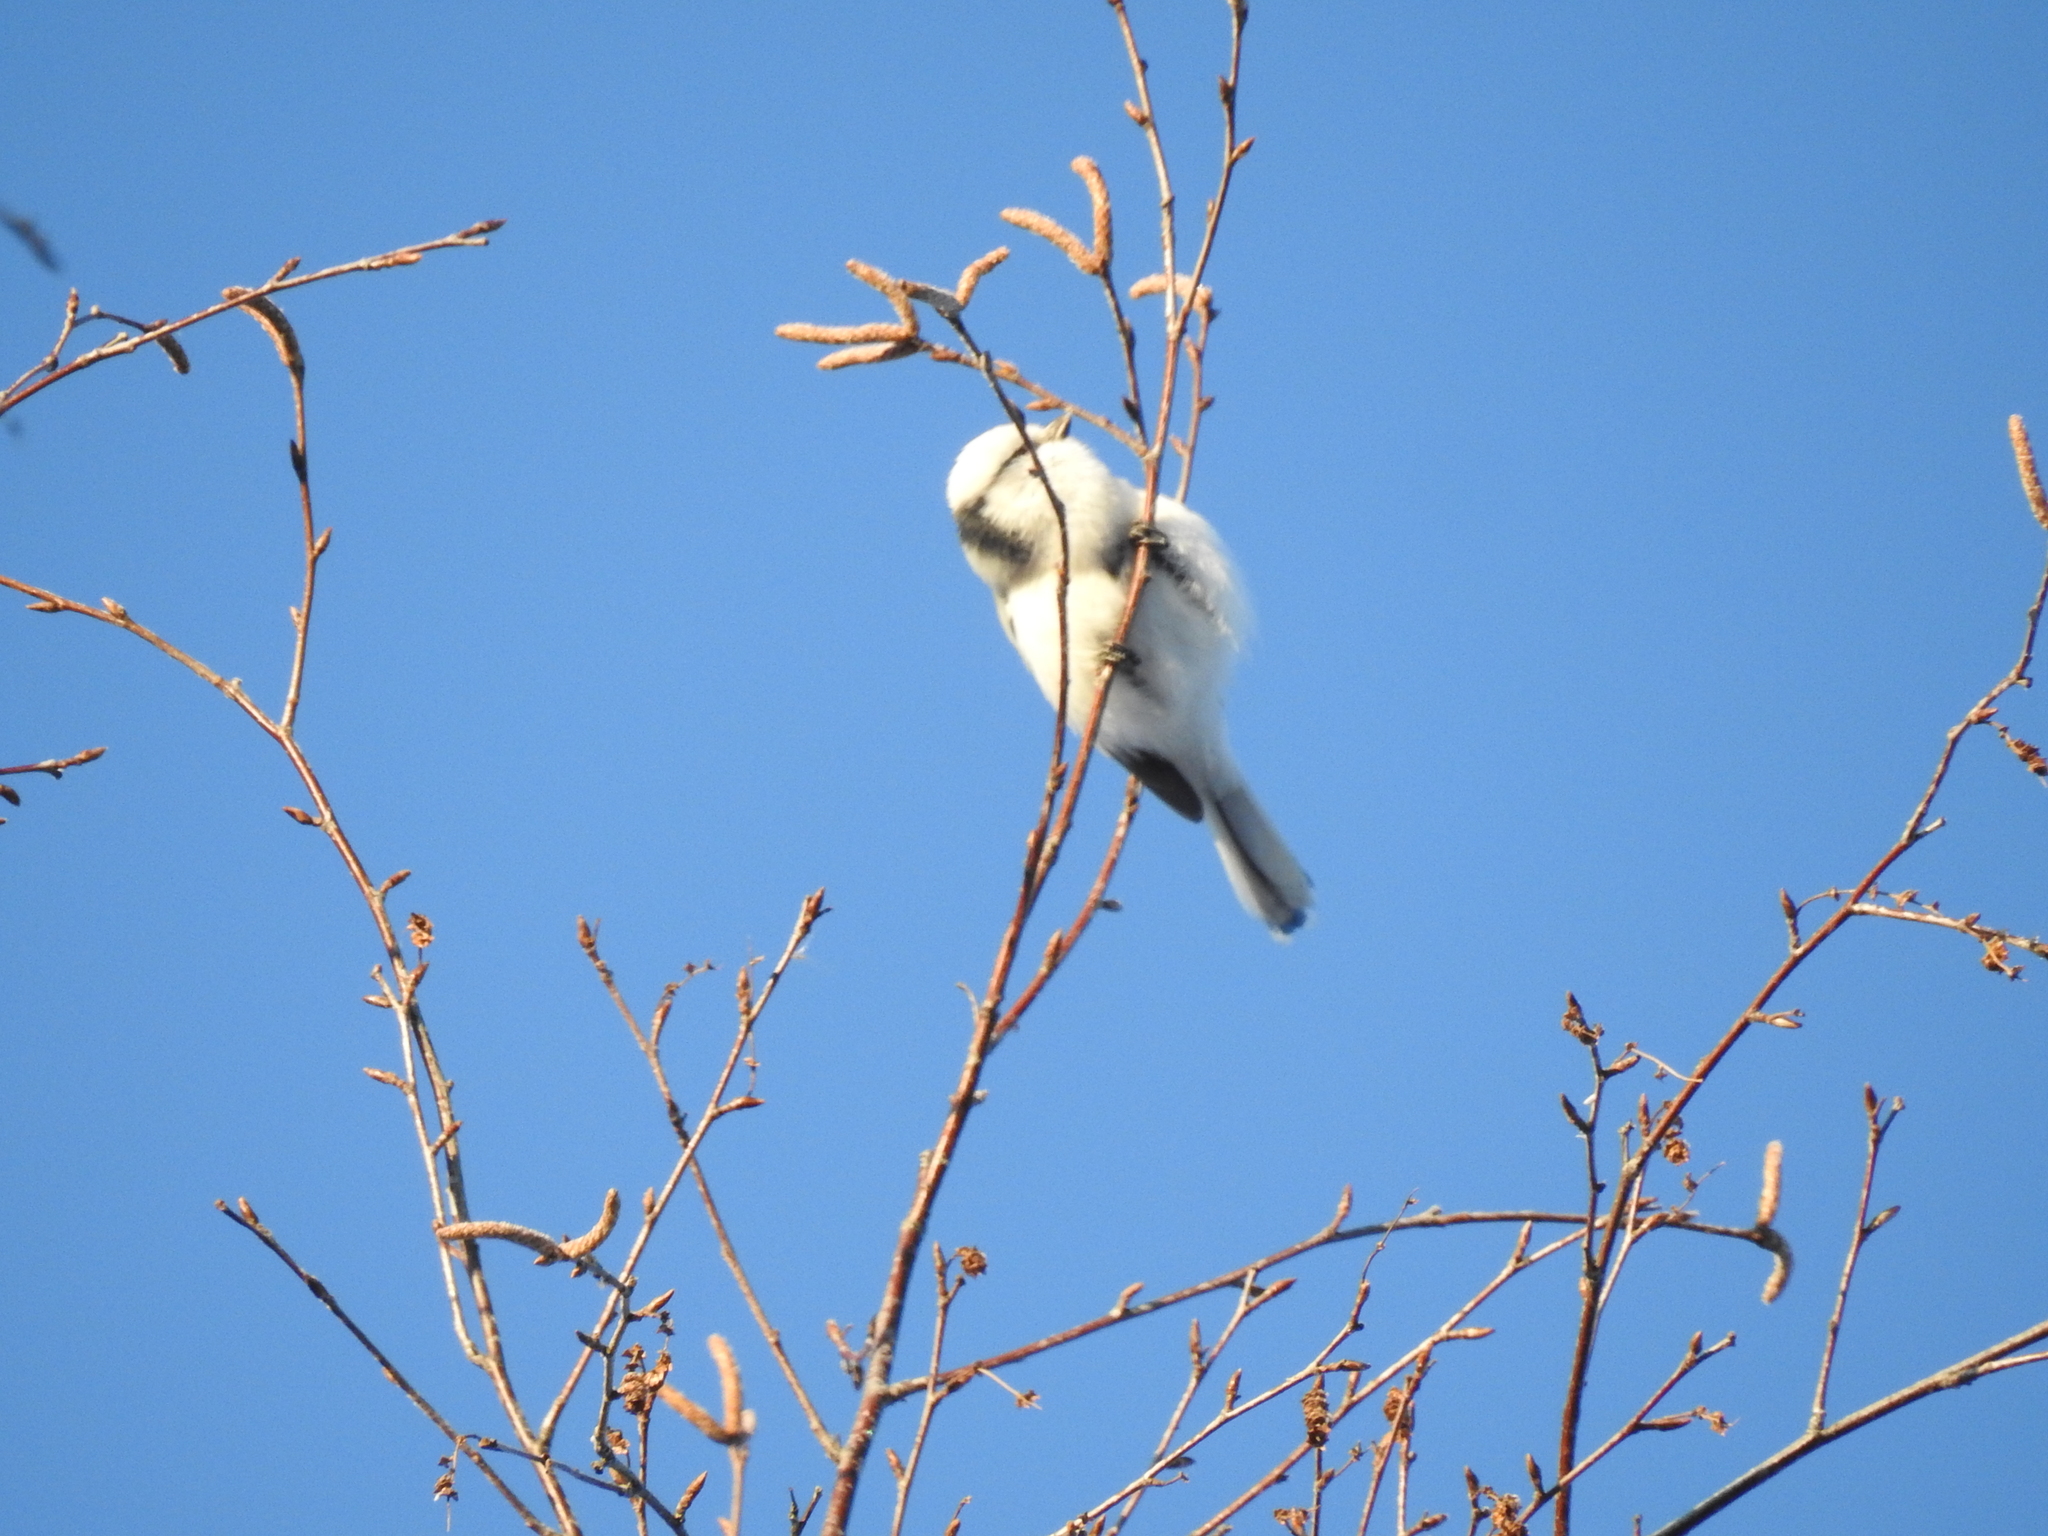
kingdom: Animalia
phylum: Chordata
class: Aves
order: Passeriformes
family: Paridae
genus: Cyanistes
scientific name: Cyanistes cyanus
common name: Azure tit
